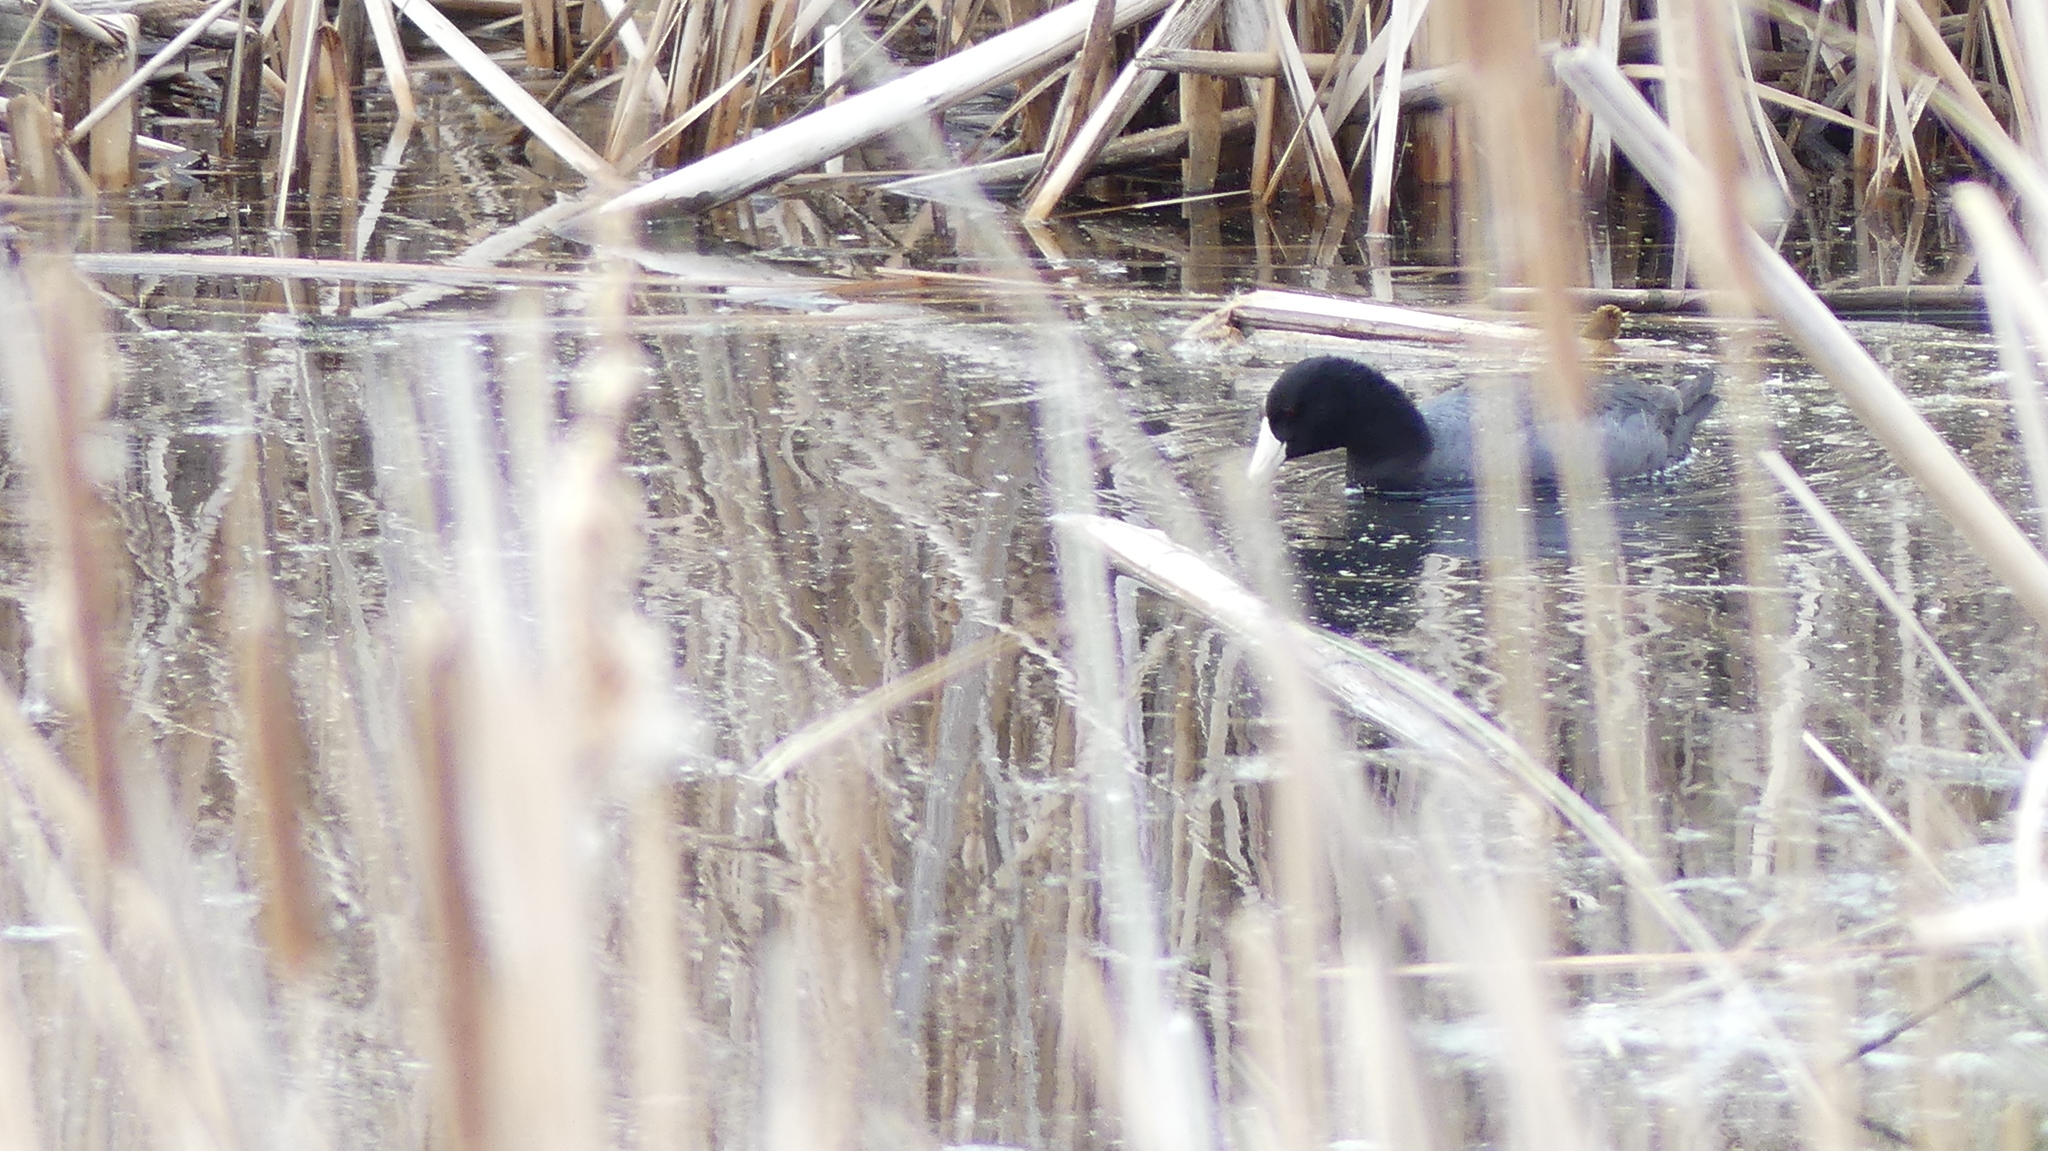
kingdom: Animalia
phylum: Chordata
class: Aves
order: Gruiformes
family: Rallidae
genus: Fulica
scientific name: Fulica americana
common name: American coot
